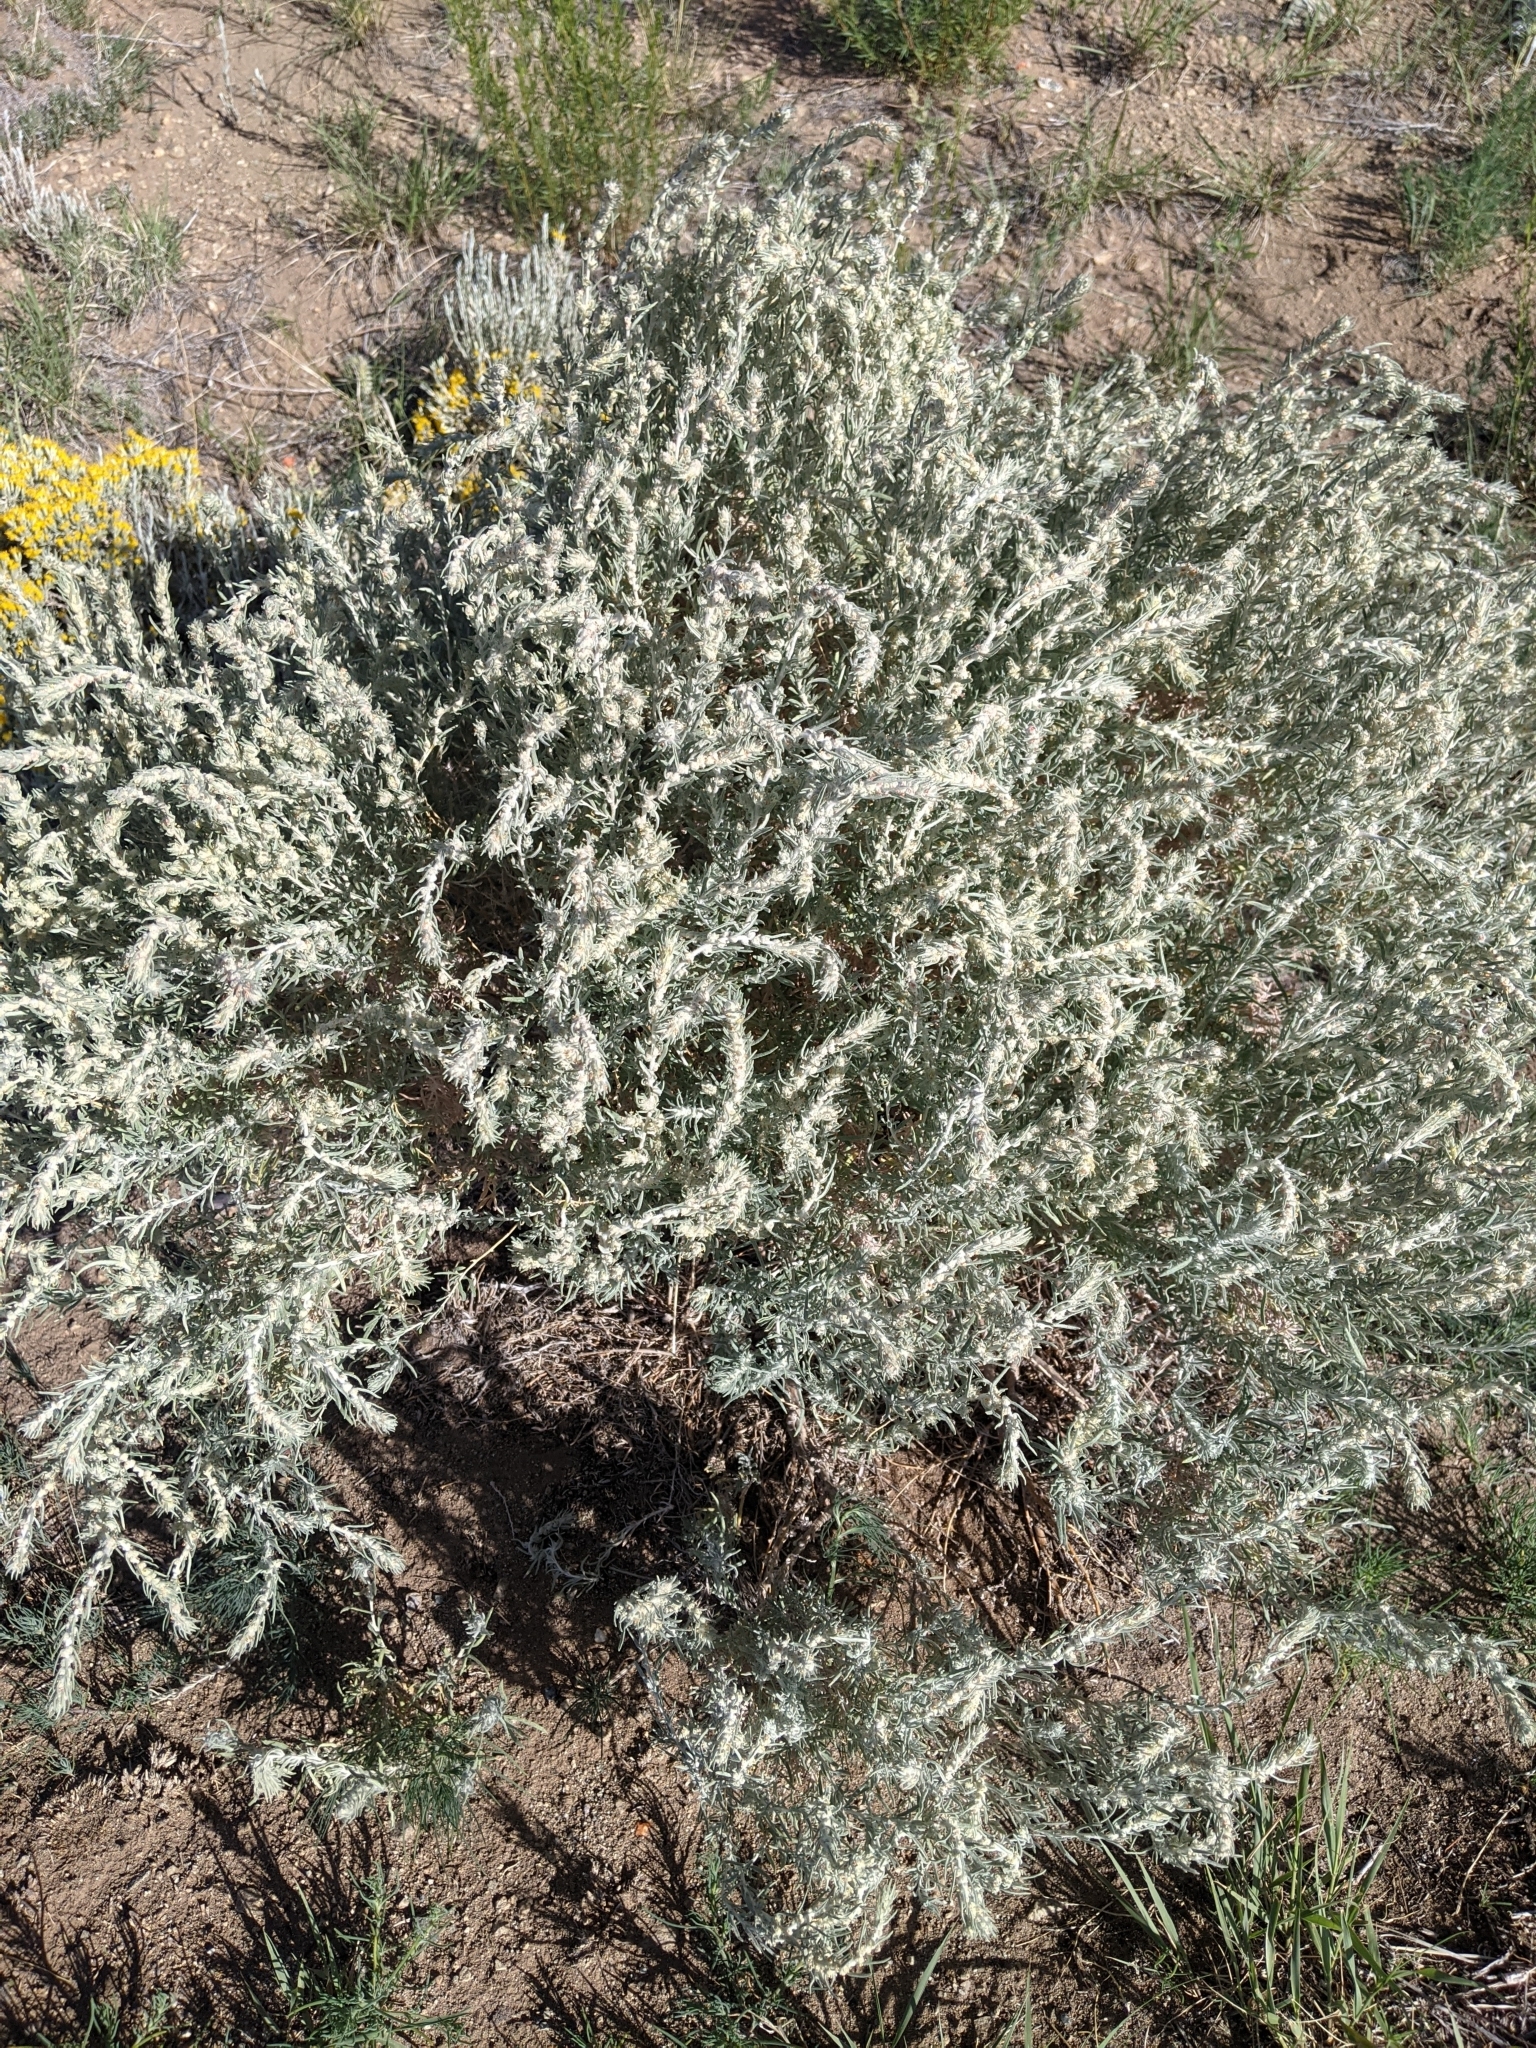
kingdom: Plantae
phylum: Tracheophyta
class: Magnoliopsida
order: Caryophyllales
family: Amaranthaceae
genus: Krascheninnikovia
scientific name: Krascheninnikovia lanata
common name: Winterfat
